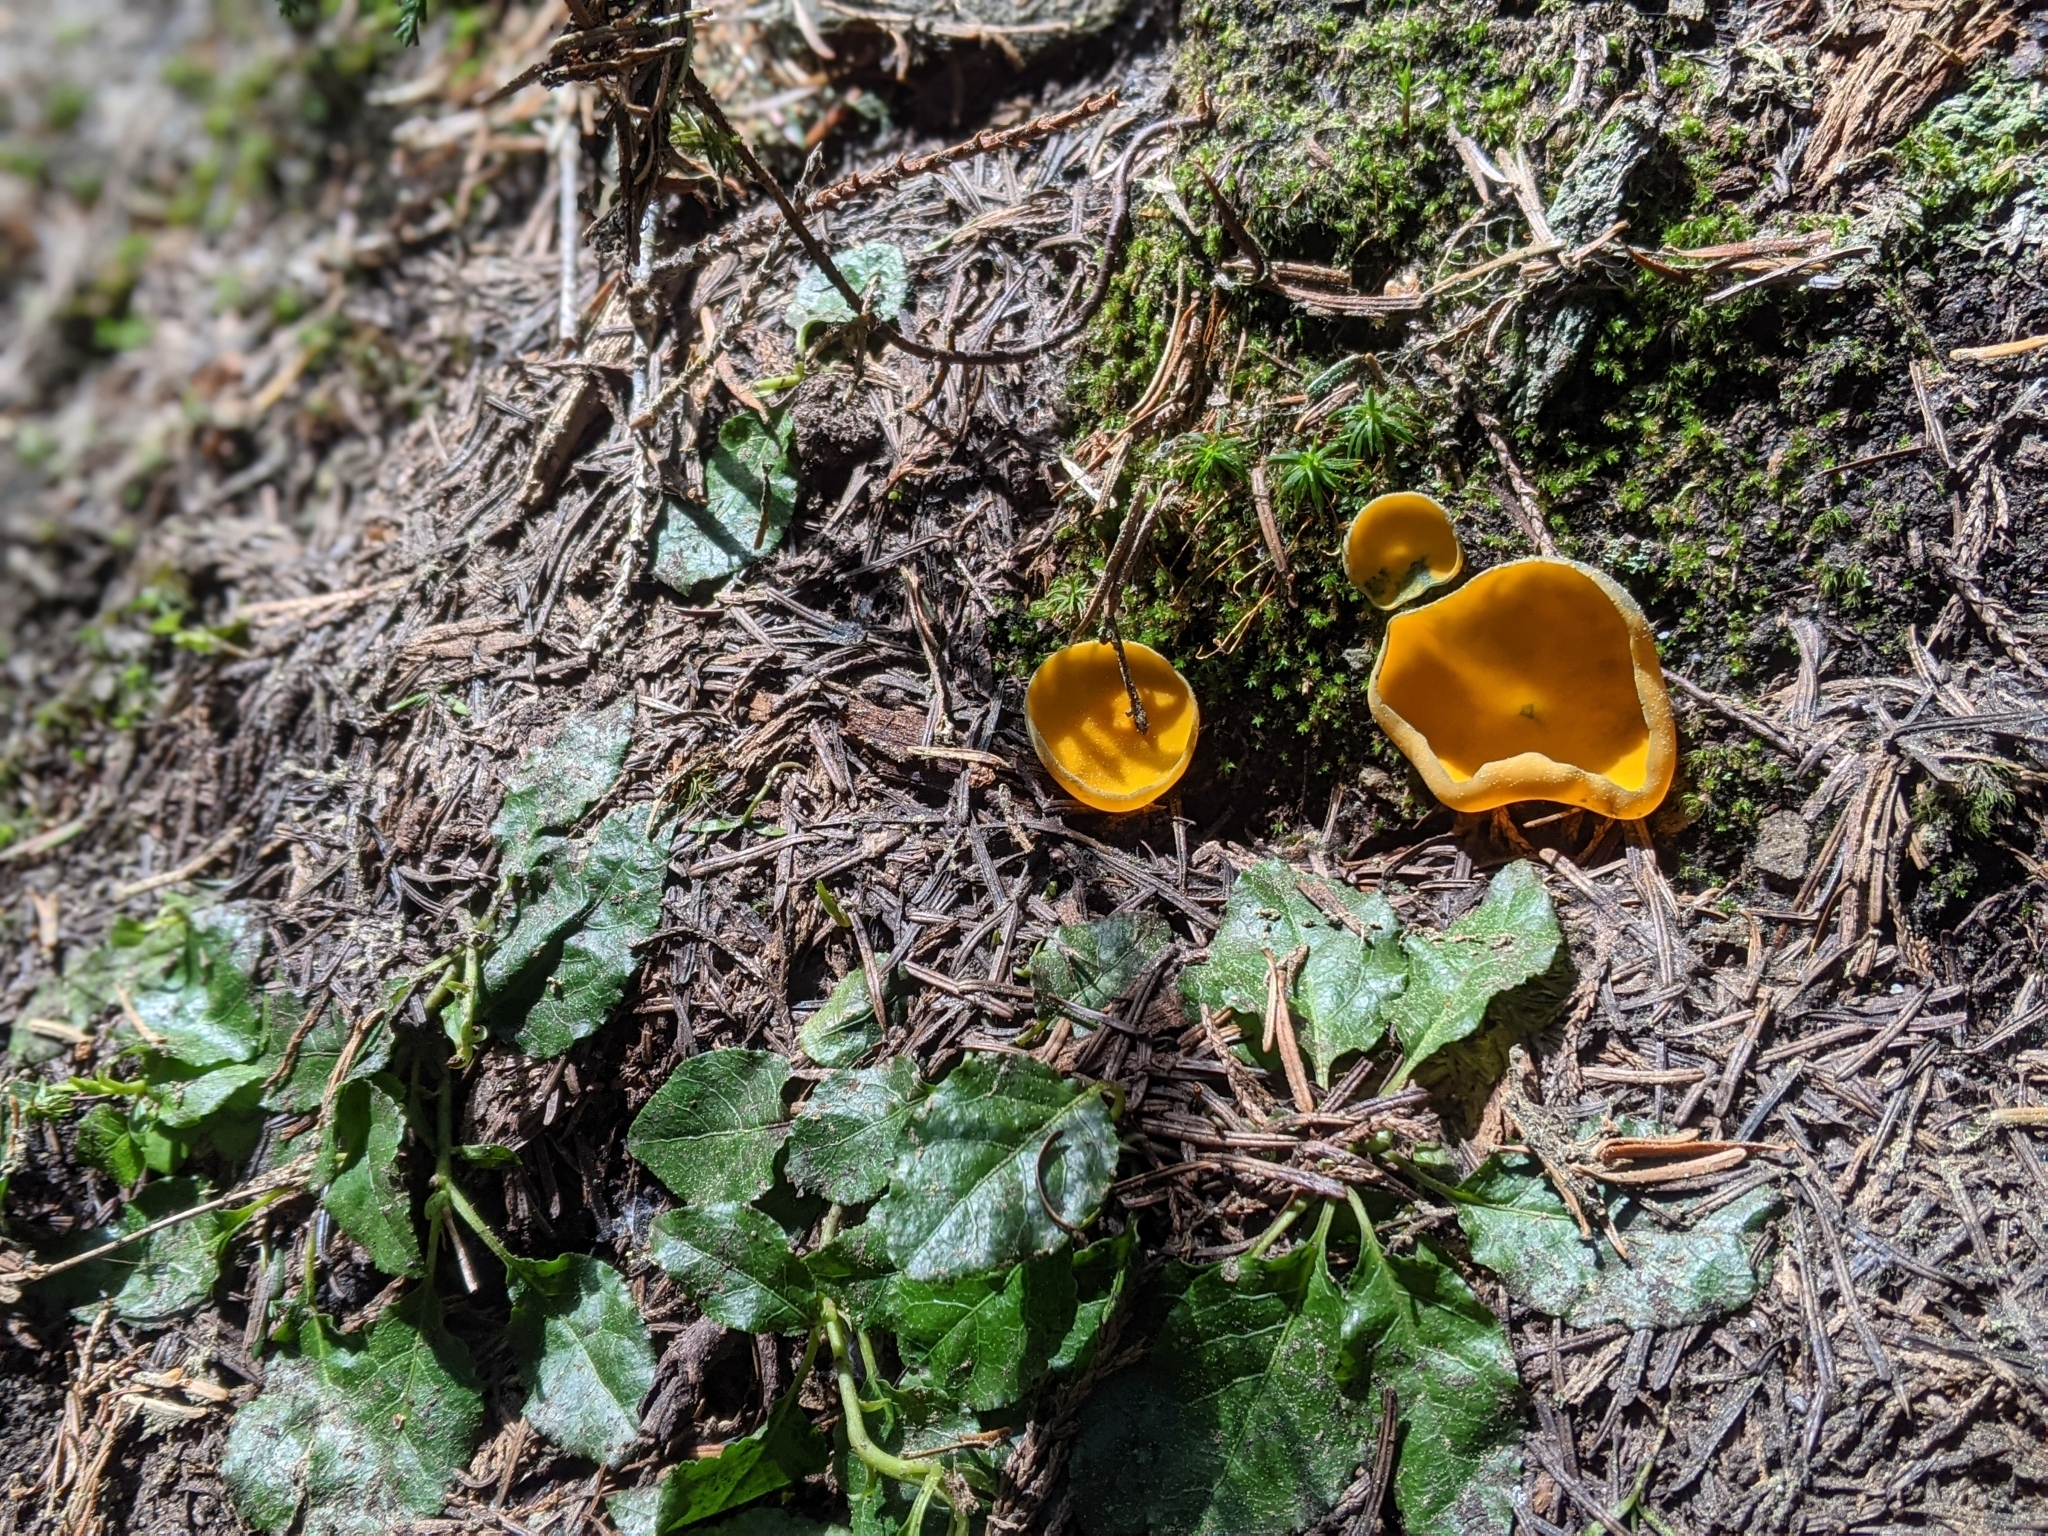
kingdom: Fungi
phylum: Ascomycota
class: Pezizomycetes
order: Pezizales
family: Caloscyphaceae
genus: Caloscypha
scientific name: Caloscypha fulgens
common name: Golden cup
